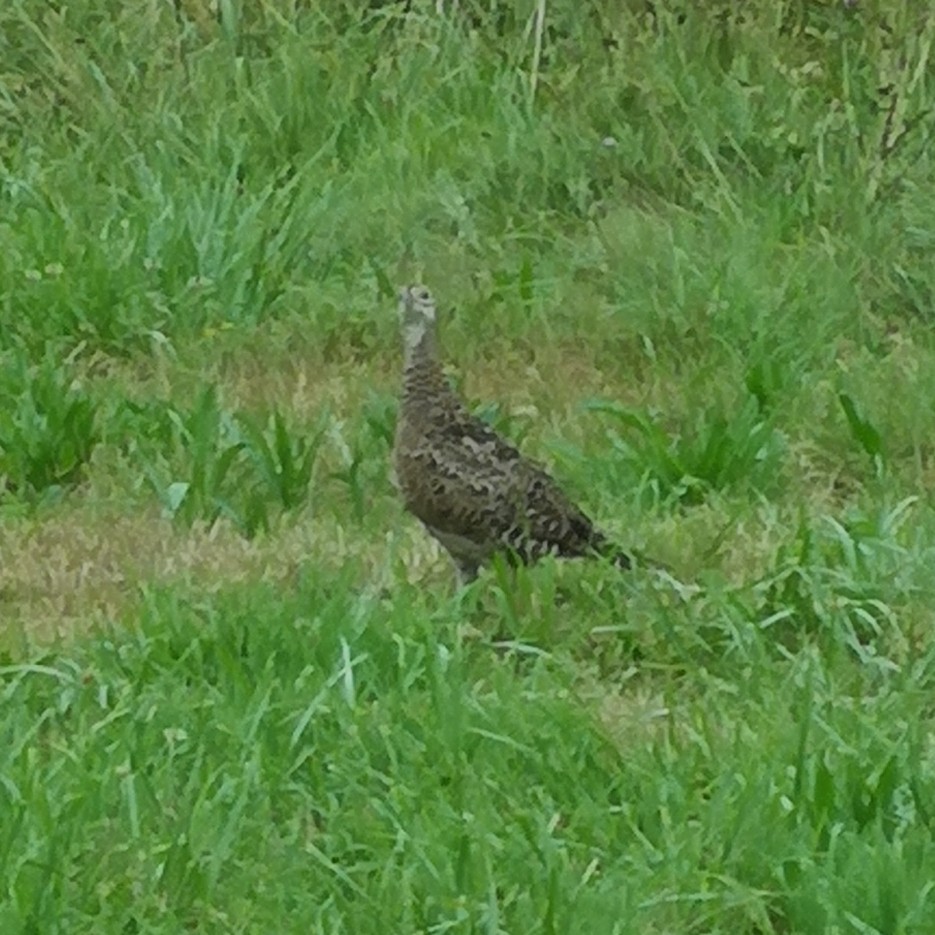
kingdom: Animalia
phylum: Chordata
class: Aves
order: Galliformes
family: Phasianidae
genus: Phasianus
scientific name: Phasianus colchicus
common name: Common pheasant
